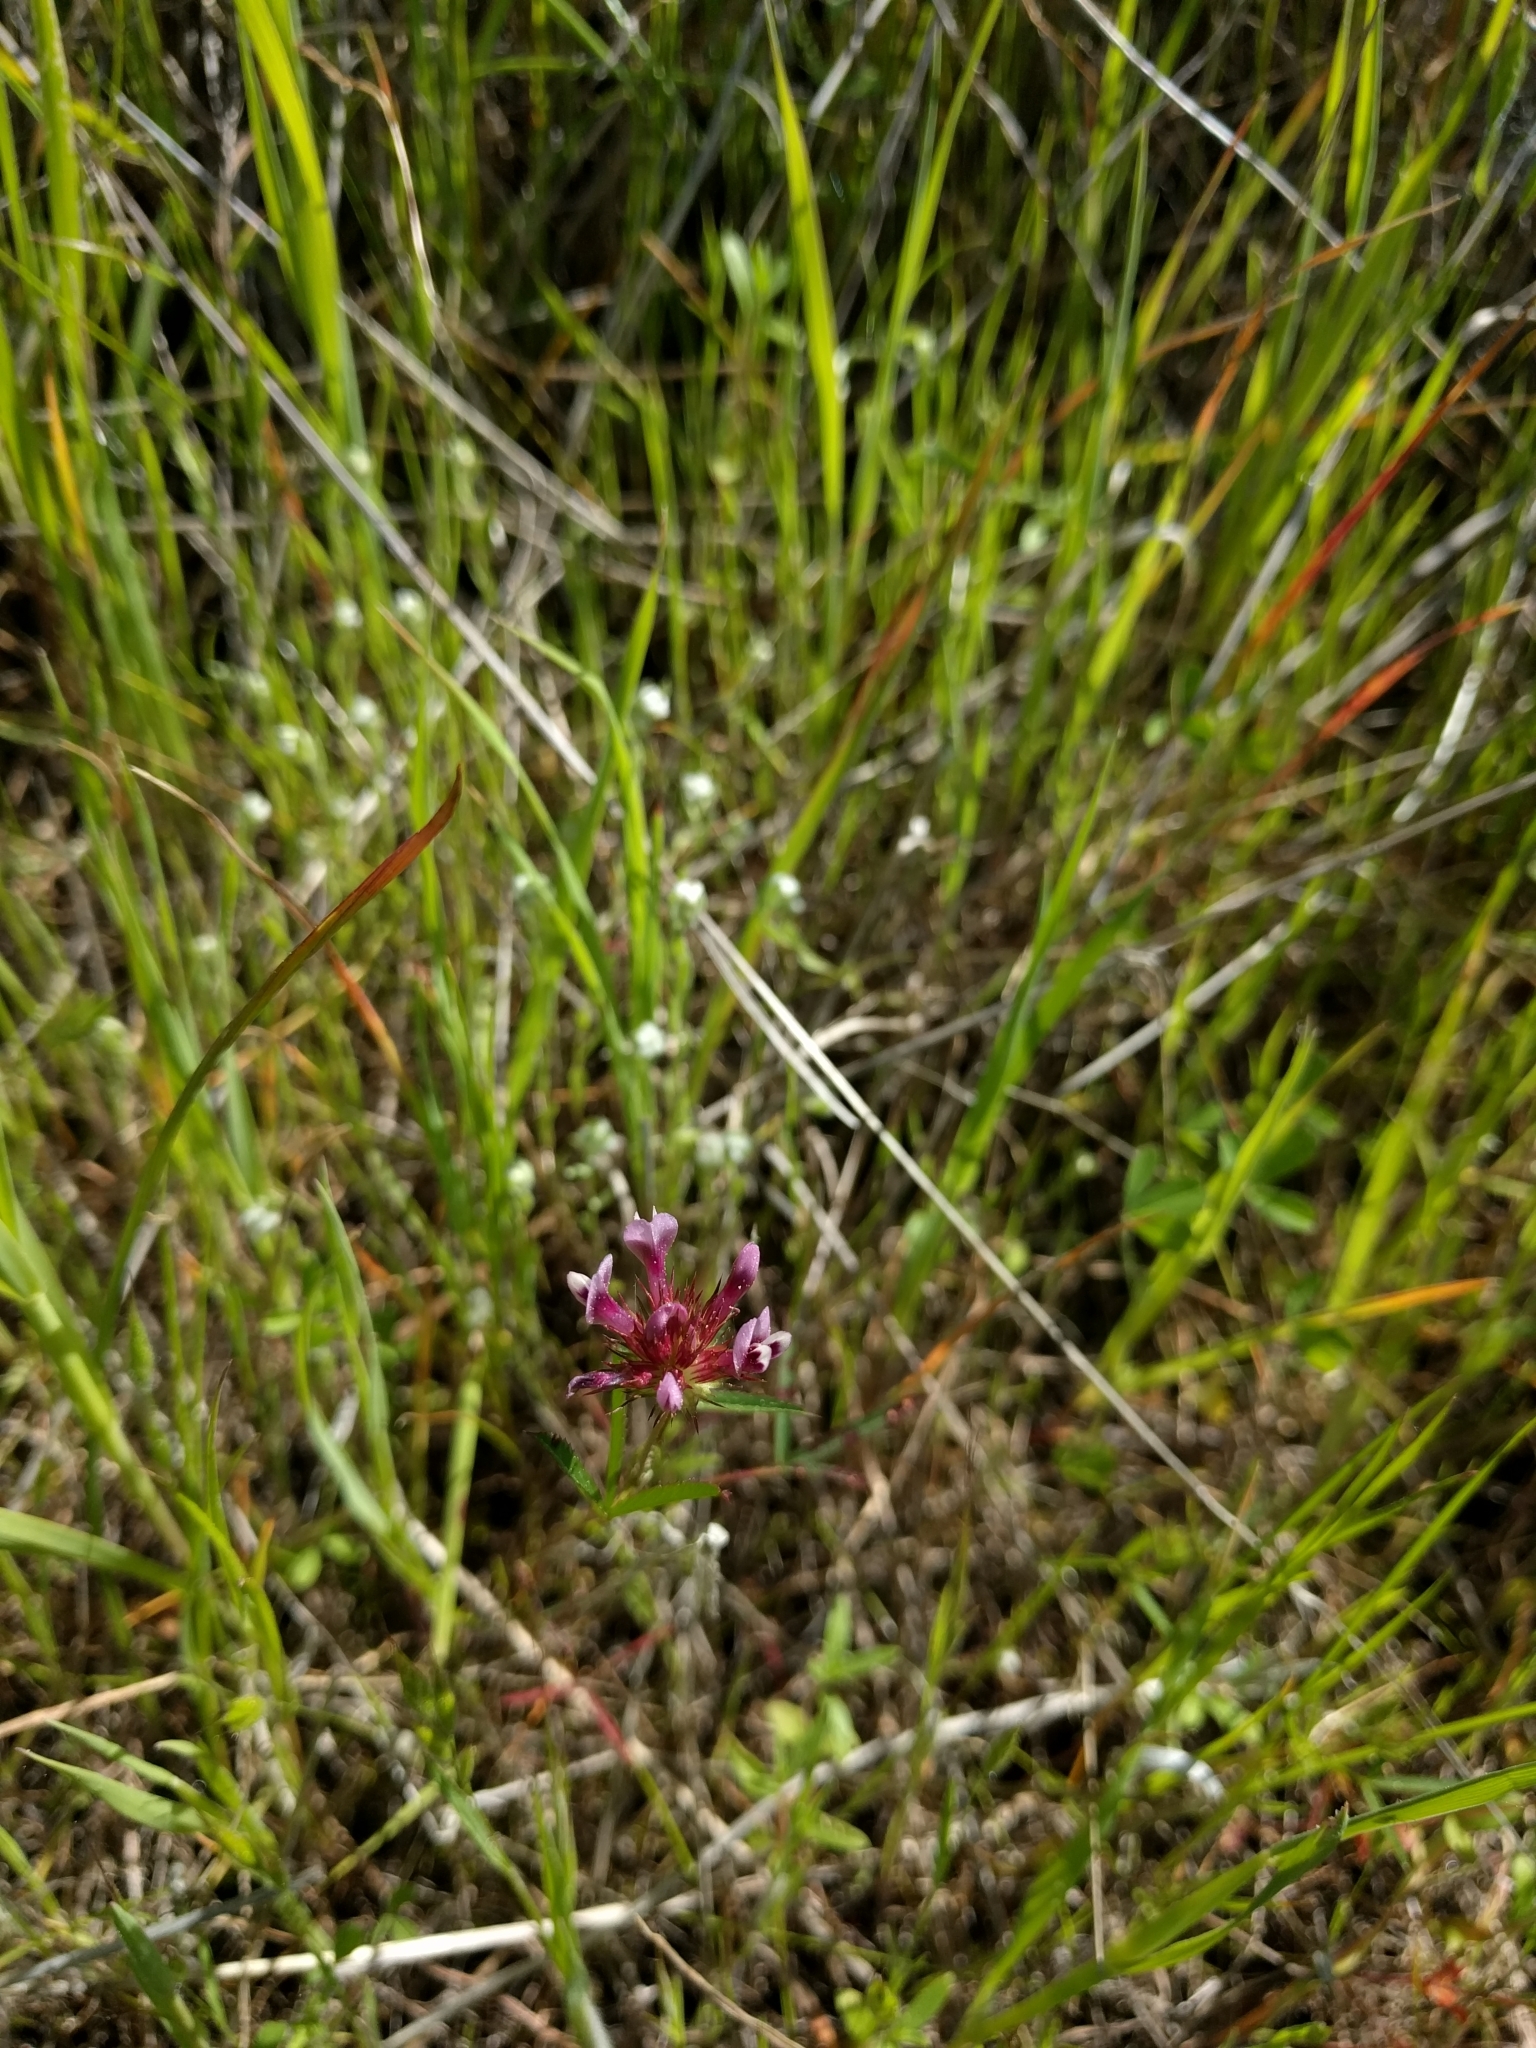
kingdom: Plantae
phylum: Tracheophyta
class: Magnoliopsida
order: Fabales
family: Fabaceae
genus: Trifolium
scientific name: Trifolium willdenovii
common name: Tomcat clover
